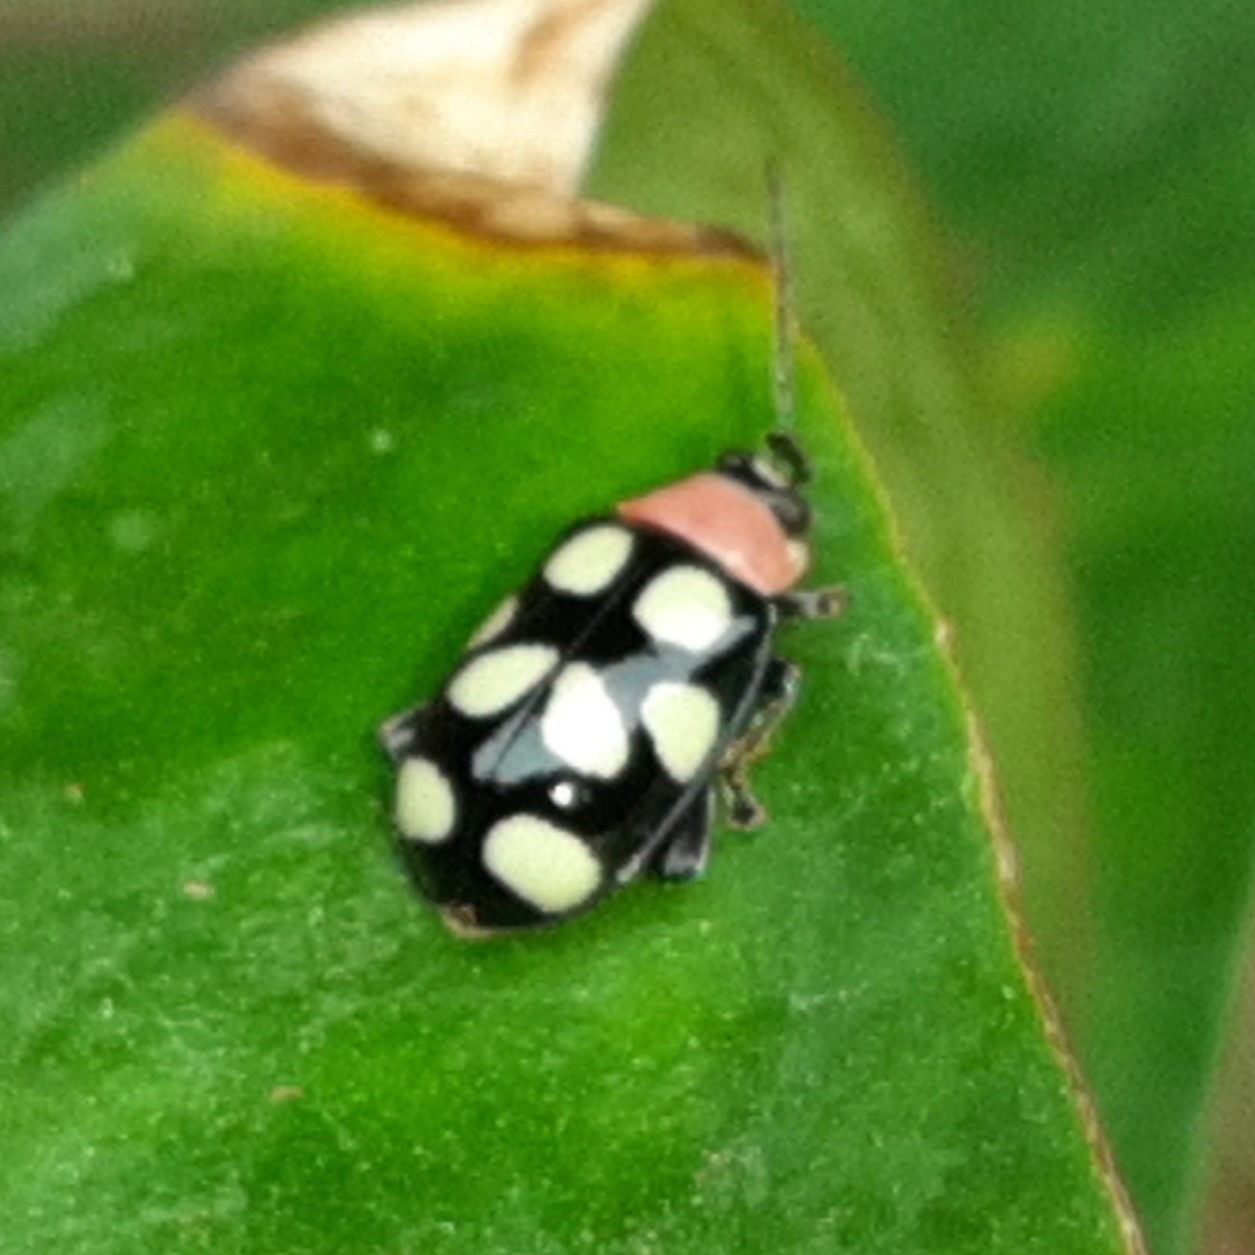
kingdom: Animalia
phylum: Arthropoda
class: Insecta
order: Coleoptera
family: Chrysomelidae
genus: Omophoita
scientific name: Omophoita aequinoctialis
